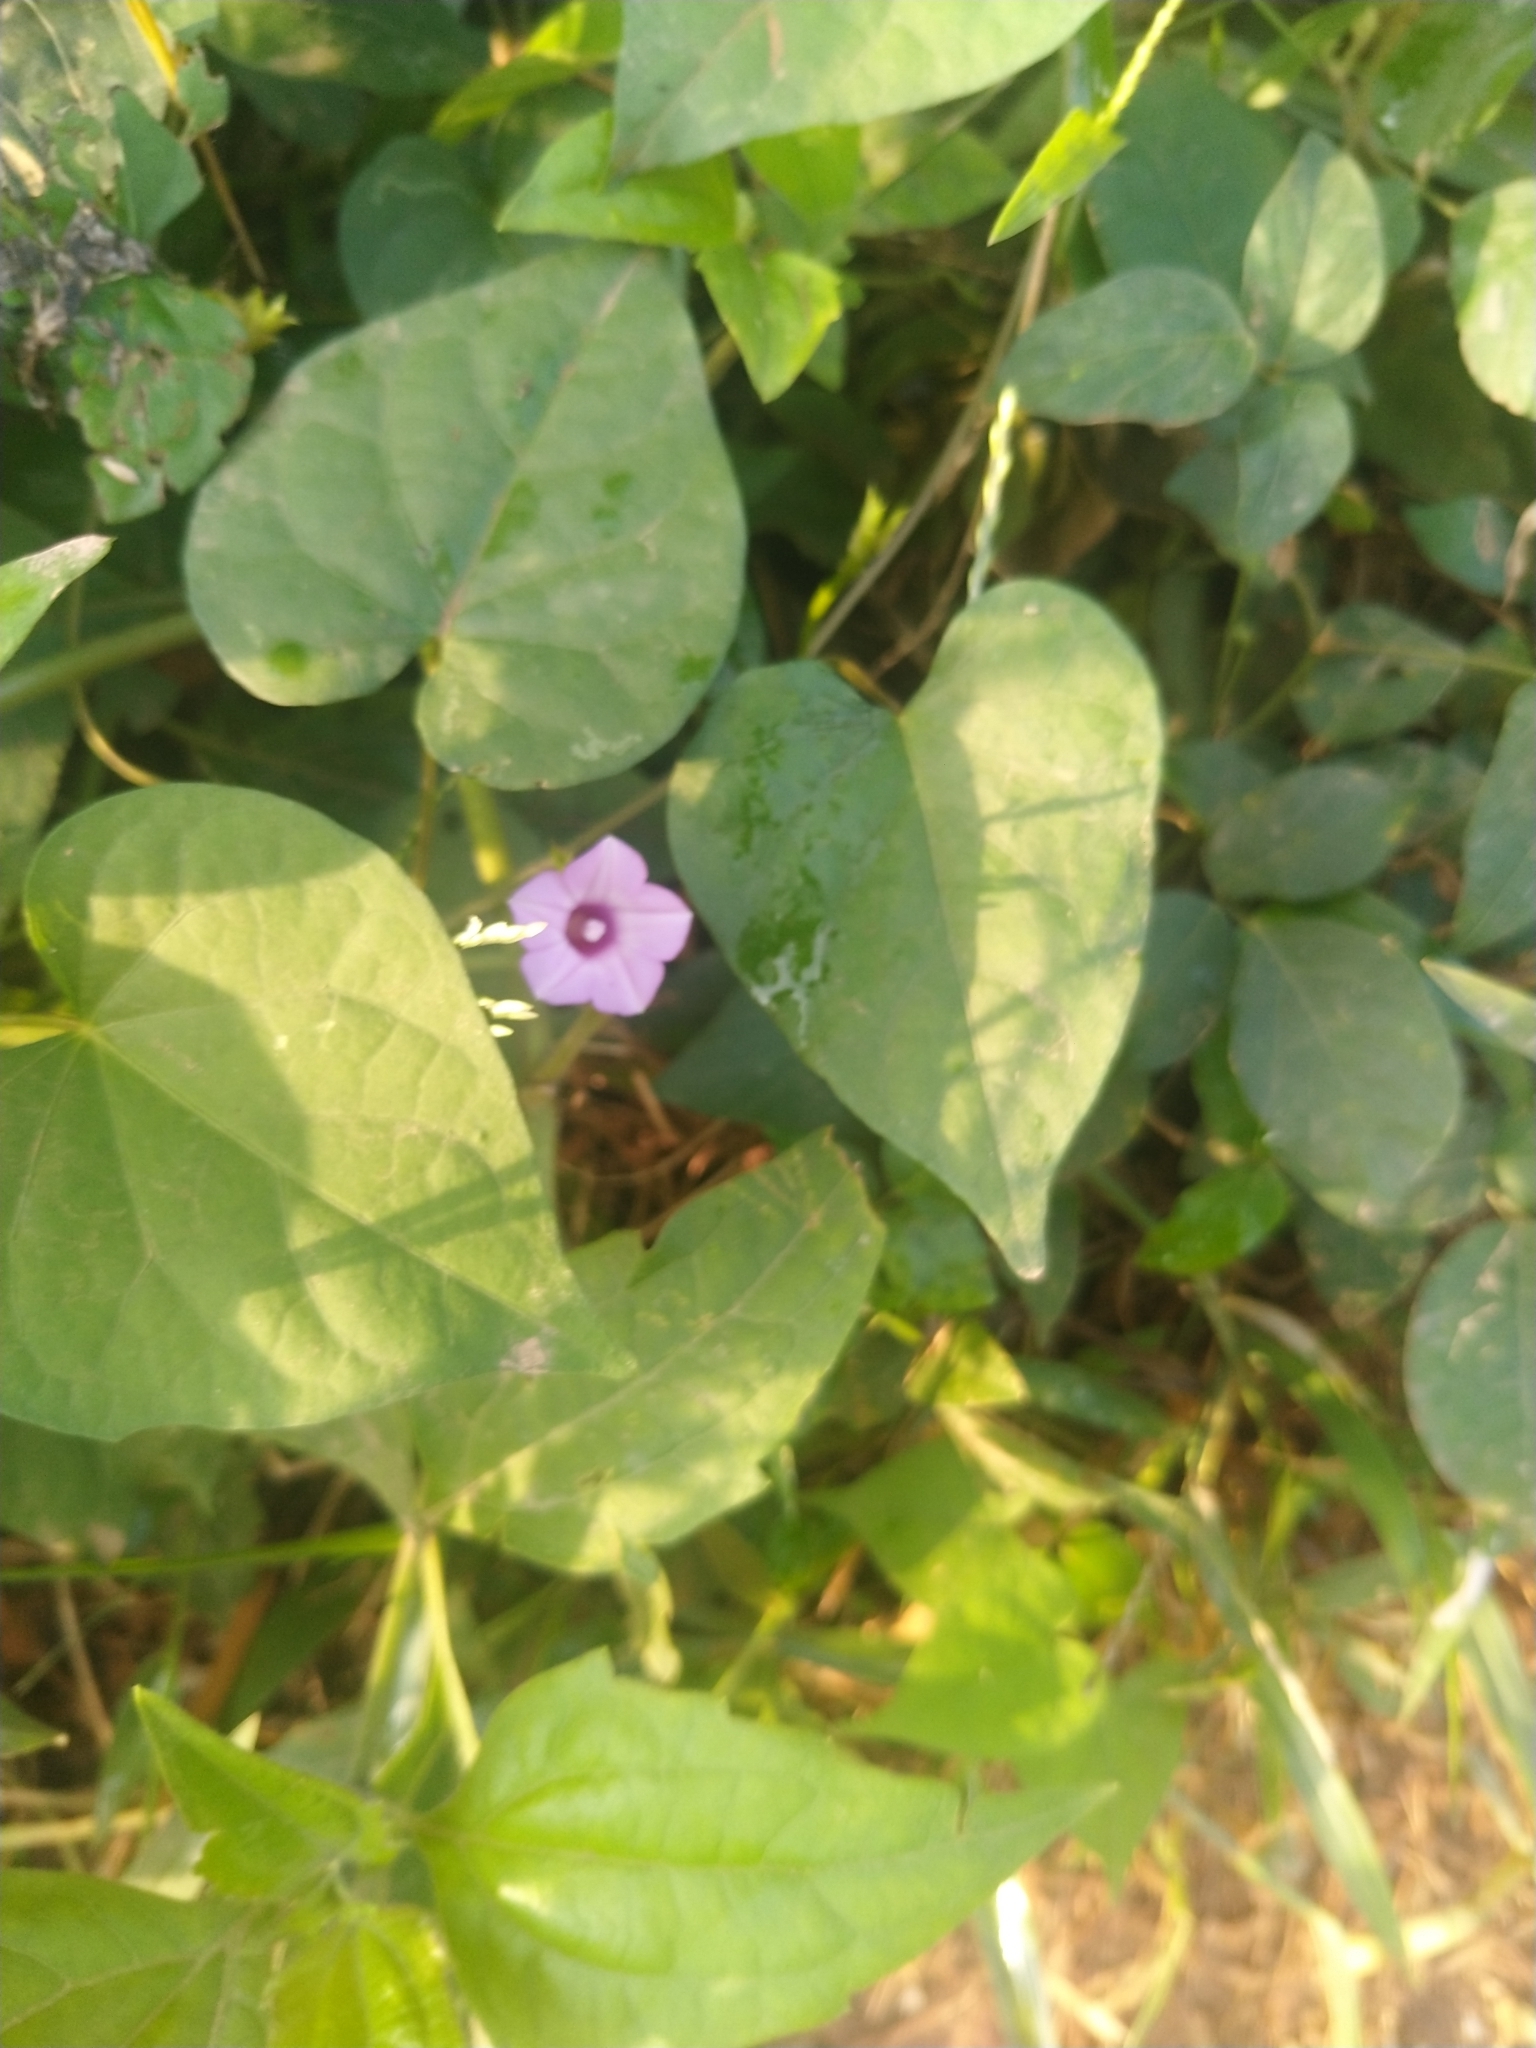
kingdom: Plantae
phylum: Tracheophyta
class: Magnoliopsida
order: Solanales
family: Convolvulaceae
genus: Ipomoea
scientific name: Ipomoea triloba
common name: Little-bell
